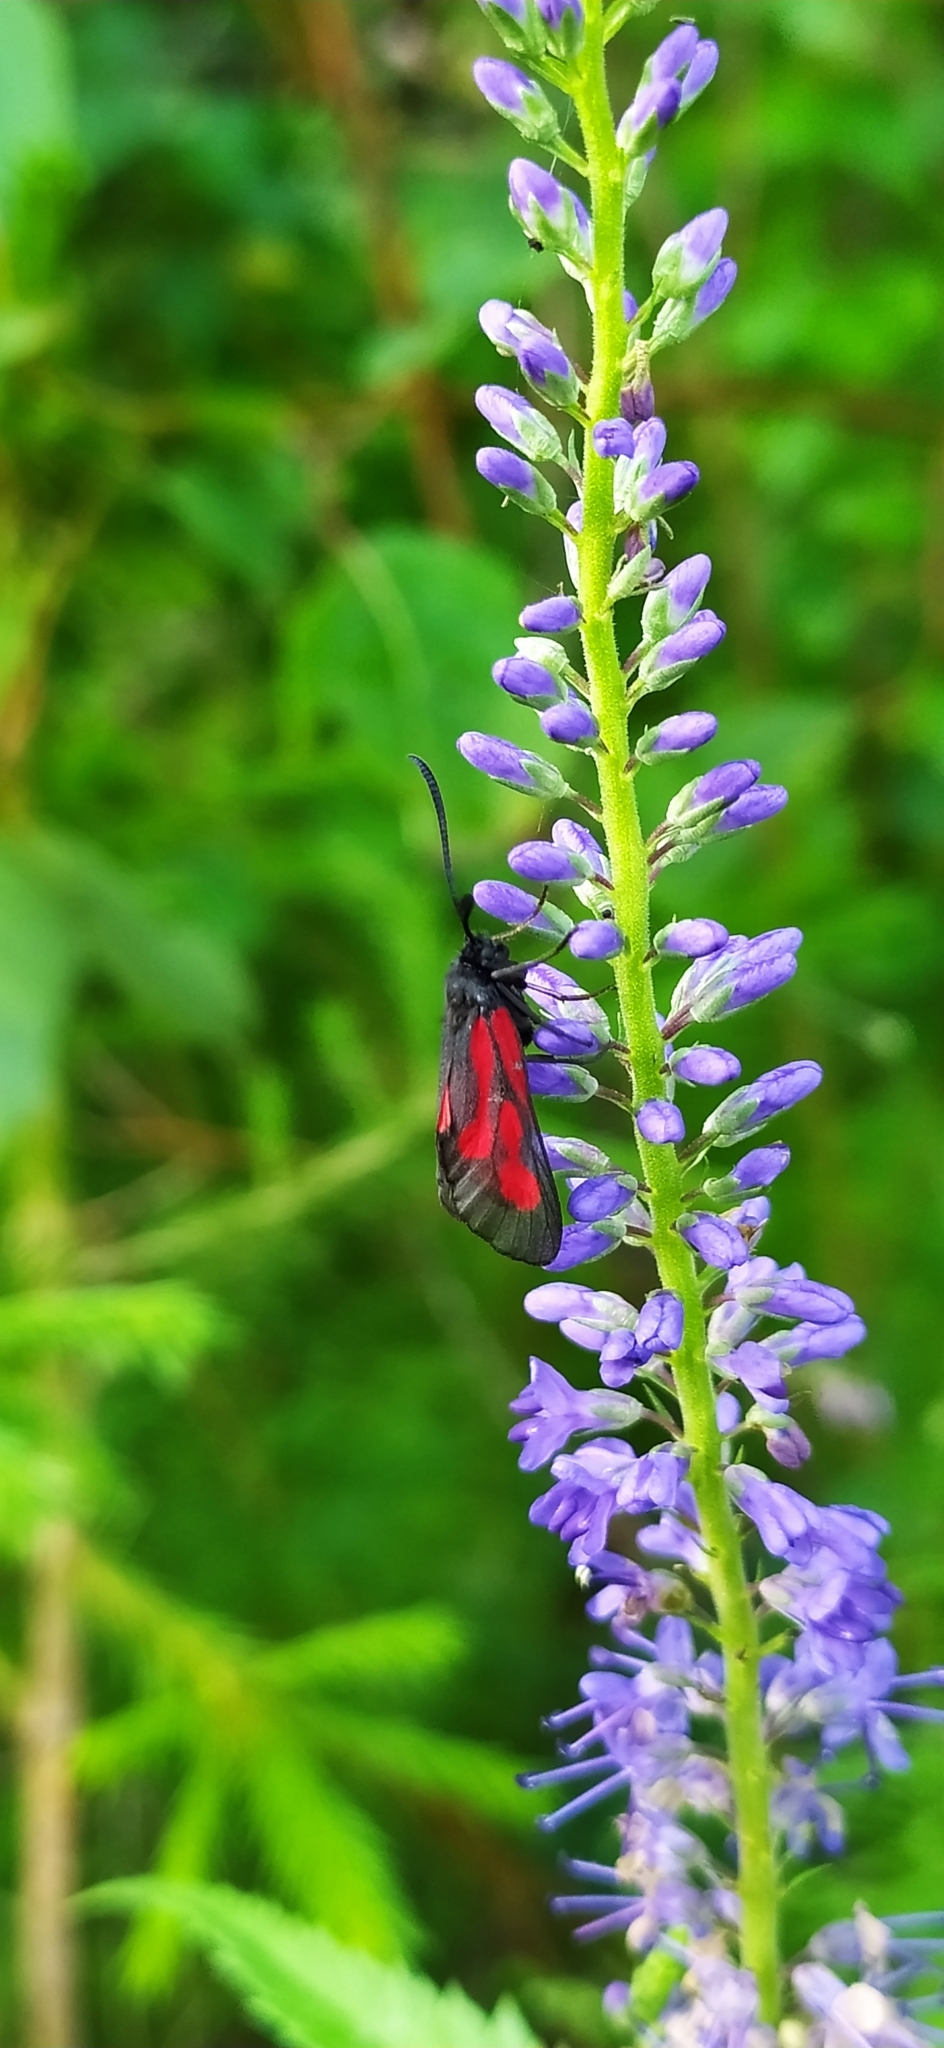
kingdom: Animalia
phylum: Arthropoda
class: Insecta
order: Lepidoptera
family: Zygaenidae
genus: Zygaena
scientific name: Zygaena osterodensis
